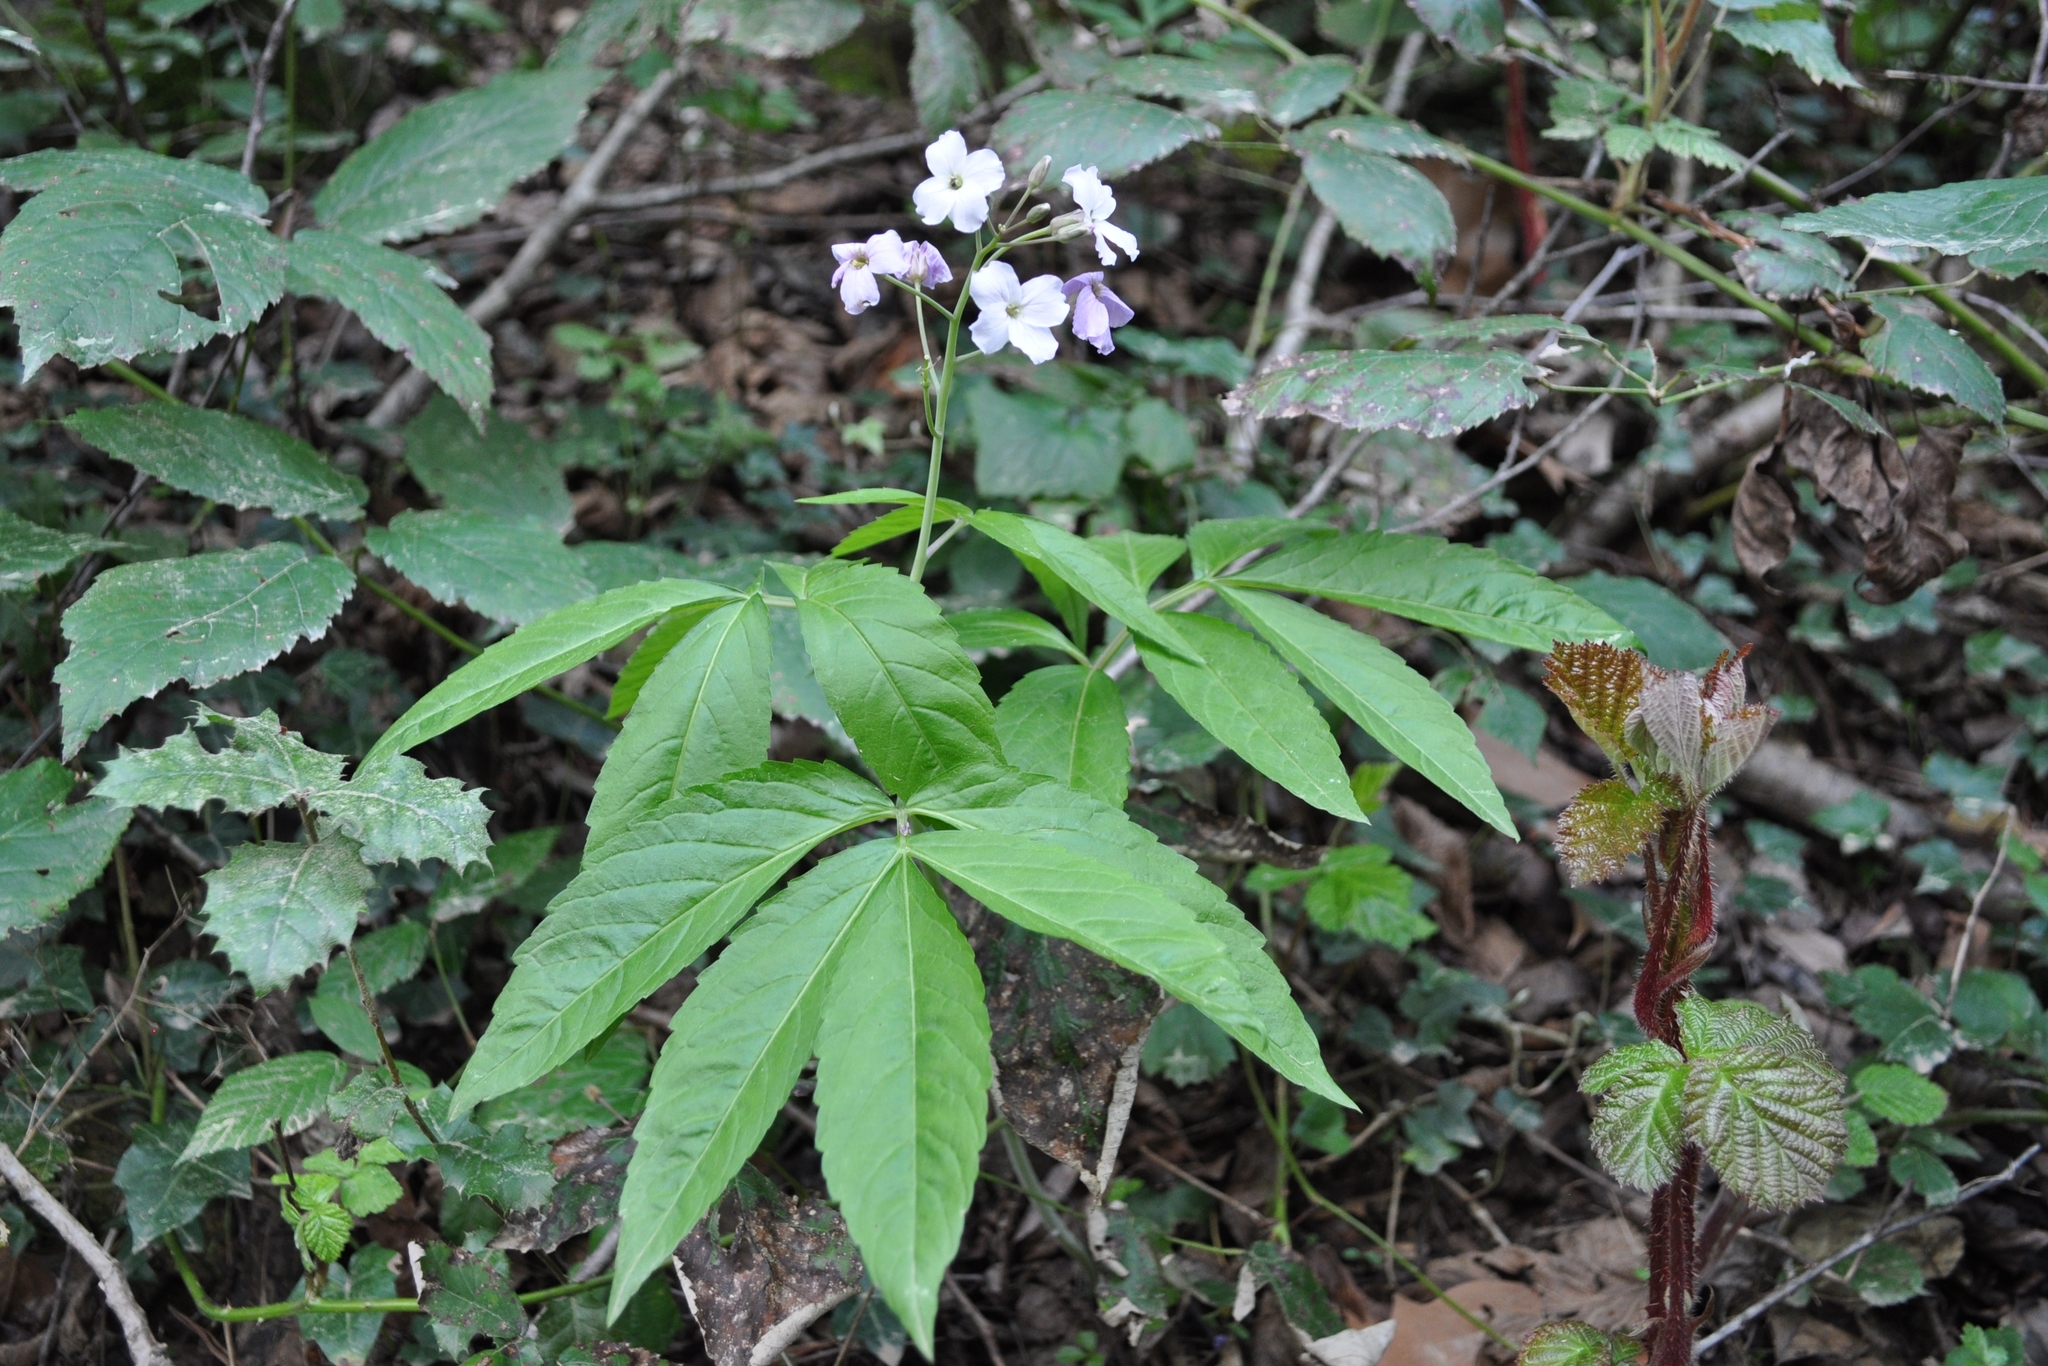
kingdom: Plantae
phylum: Tracheophyta
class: Magnoliopsida
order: Brassicales
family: Brassicaceae
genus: Cardamine
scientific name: Cardamine heptaphylla
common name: Pinnate coralroot
